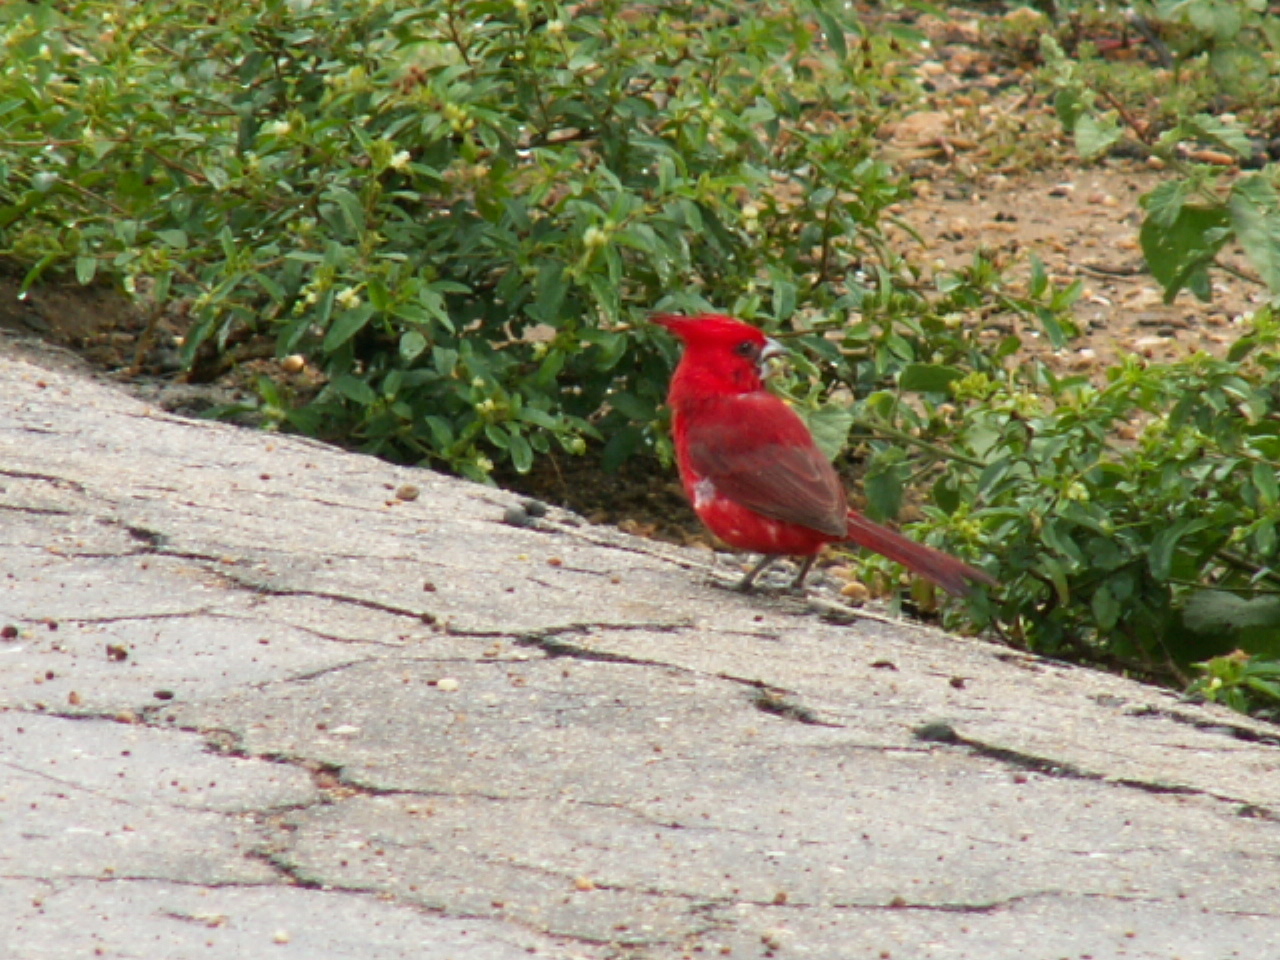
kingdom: Animalia
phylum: Chordata
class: Aves
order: Passeriformes
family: Cardinalidae
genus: Cardinalis
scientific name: Cardinalis phoeniceus
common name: Vermilion cardinal
